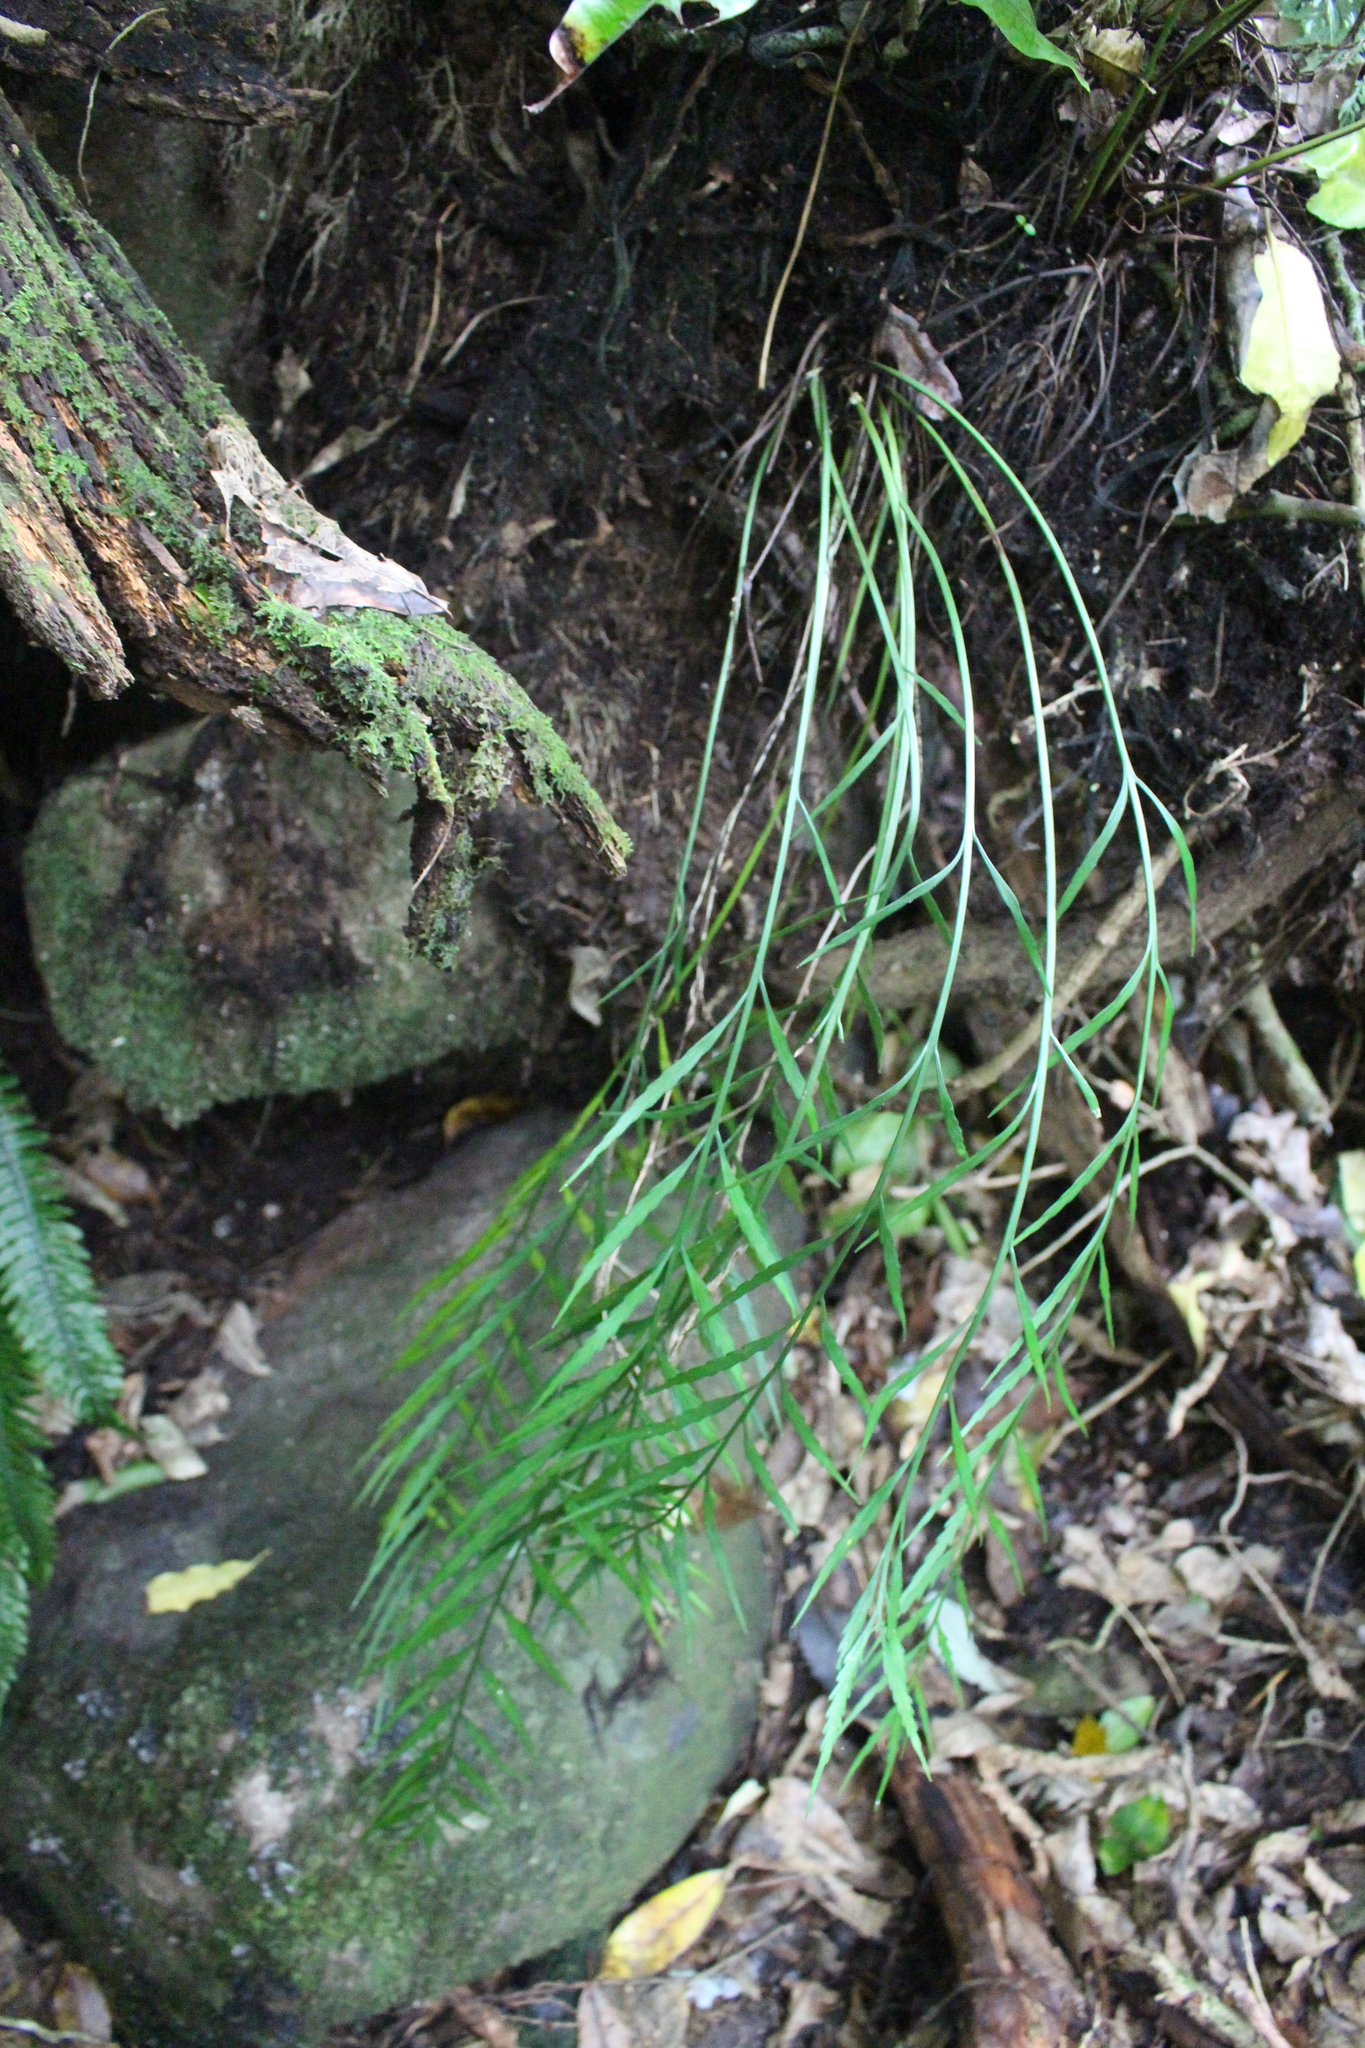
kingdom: Plantae
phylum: Tracheophyta
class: Polypodiopsida
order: Polypodiales
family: Aspleniaceae
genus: Asplenium
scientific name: Asplenium flaccidum
